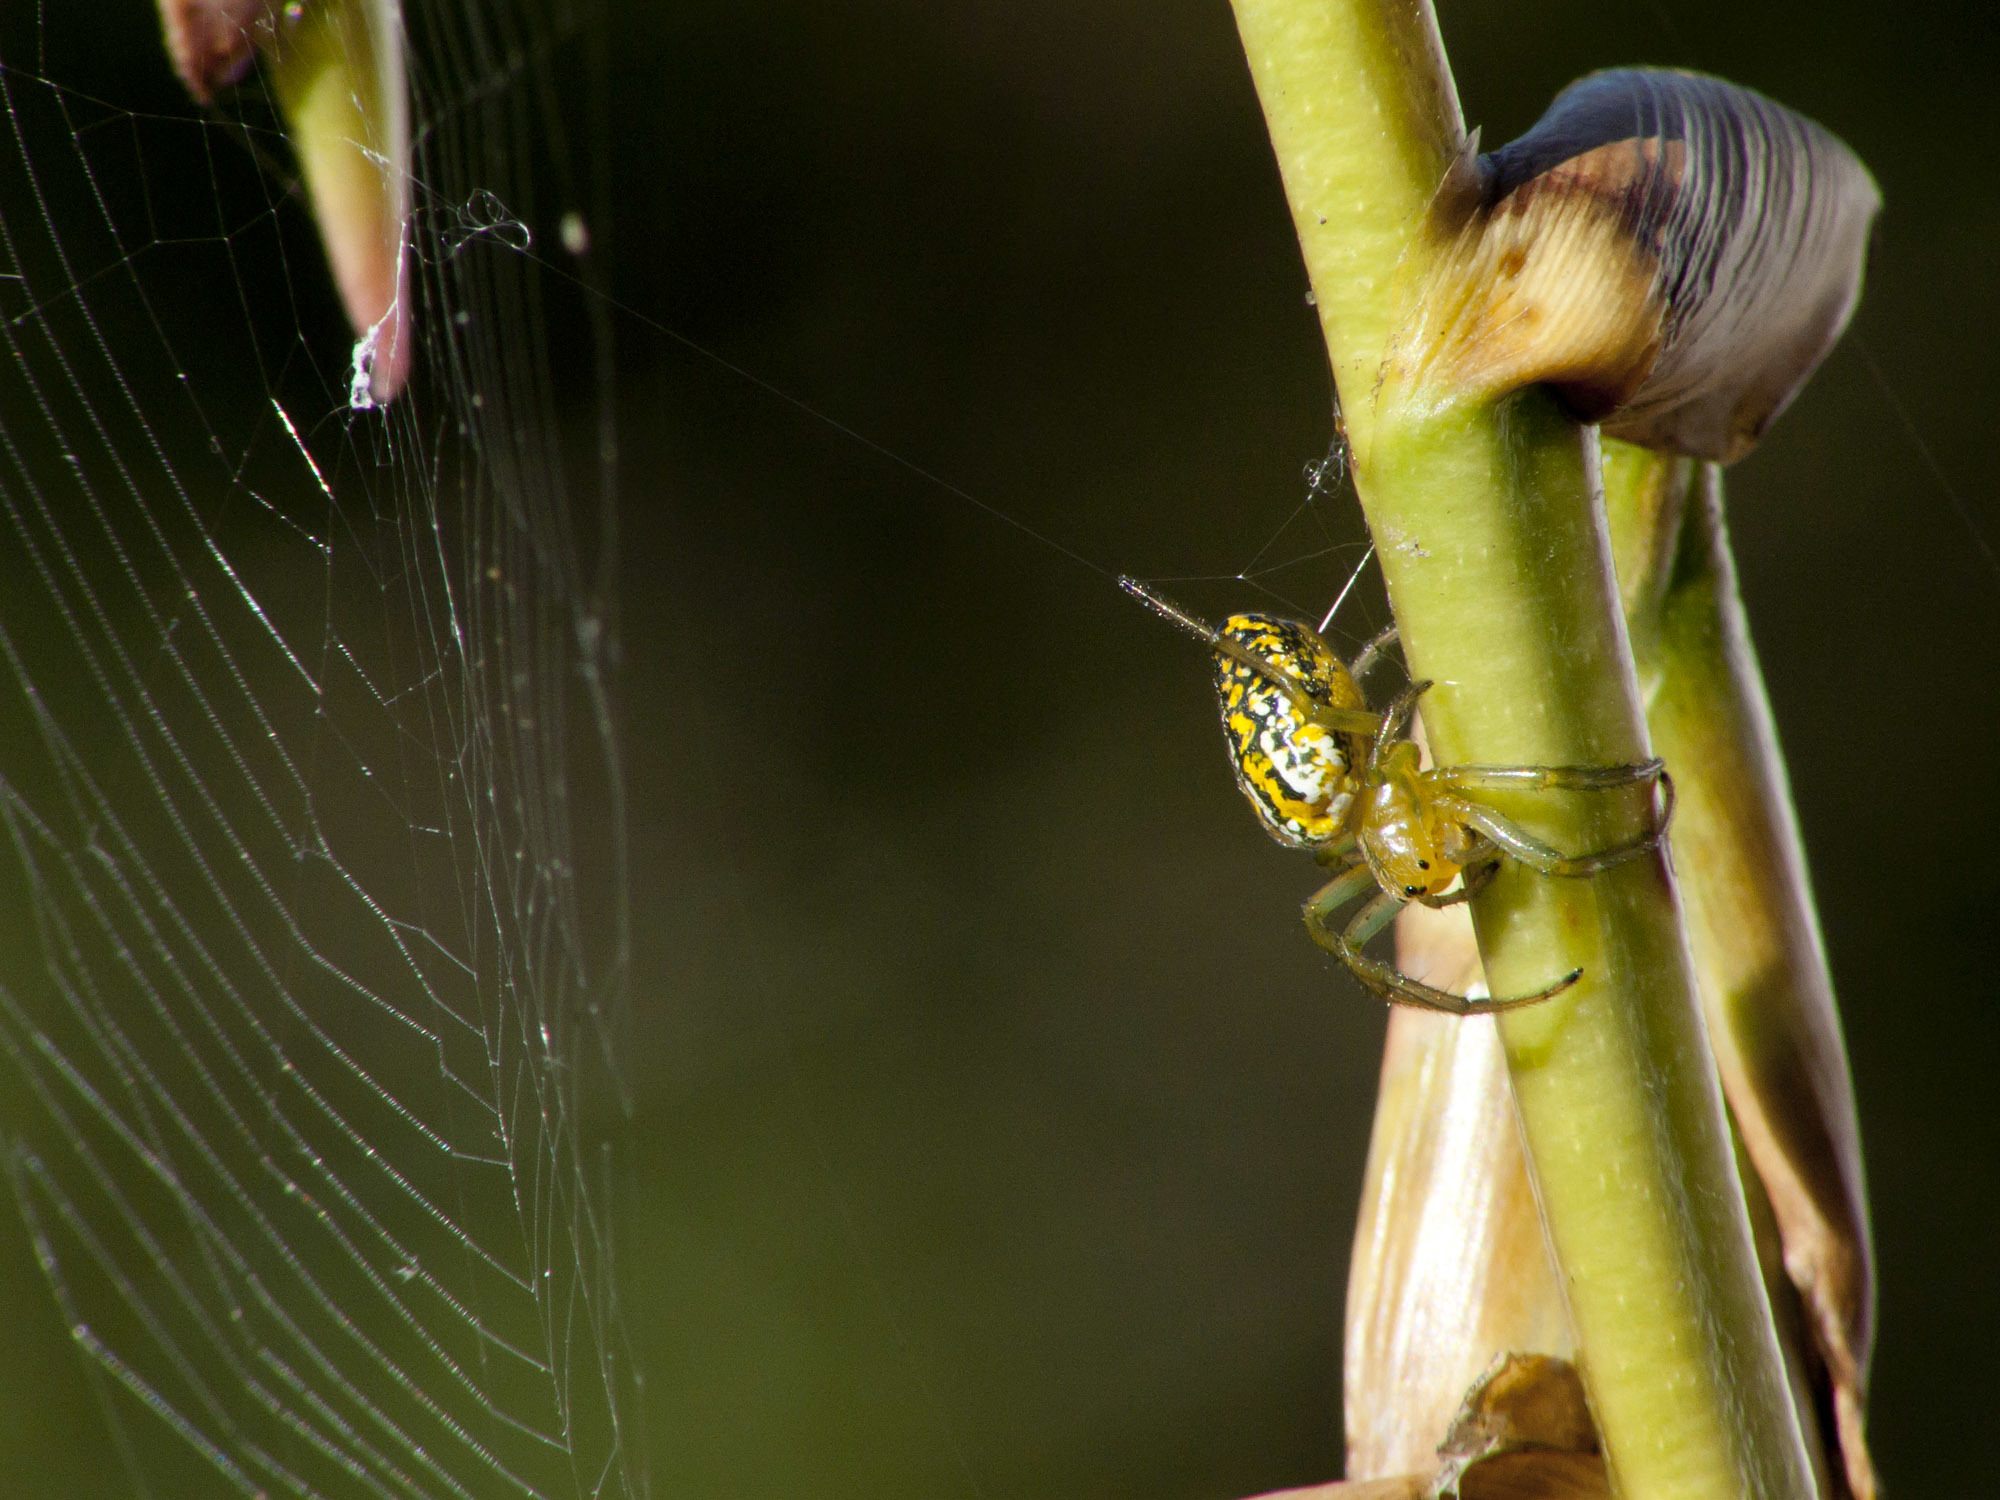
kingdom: Animalia
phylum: Arthropoda
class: Arachnida
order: Araneae
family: Araneidae
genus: Alpaida
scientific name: Alpaida variabilis
